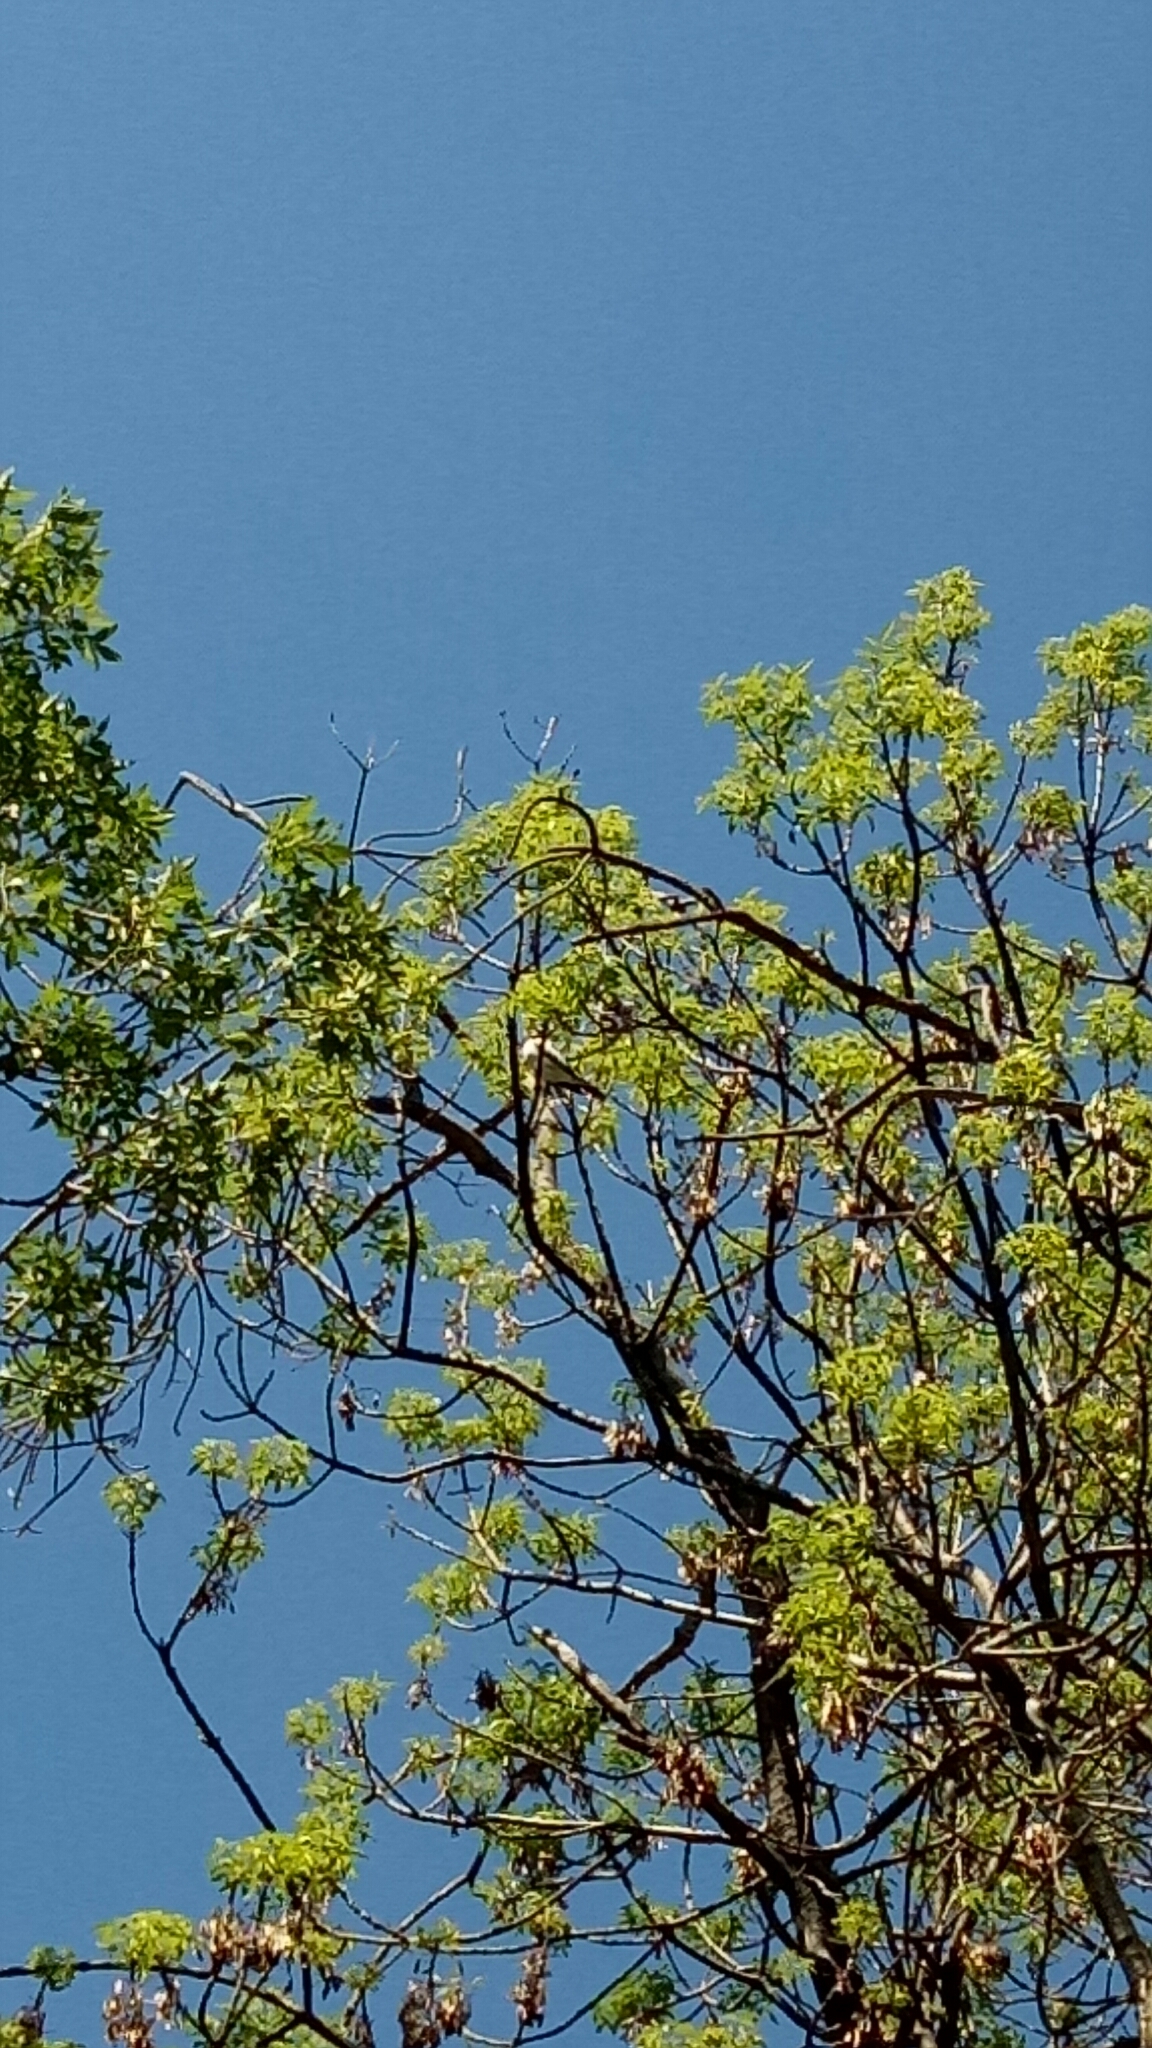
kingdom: Animalia
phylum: Chordata
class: Aves
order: Passeriformes
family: Campephagidae
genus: Lalage
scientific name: Lalage tricolor
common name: White-winged triller
